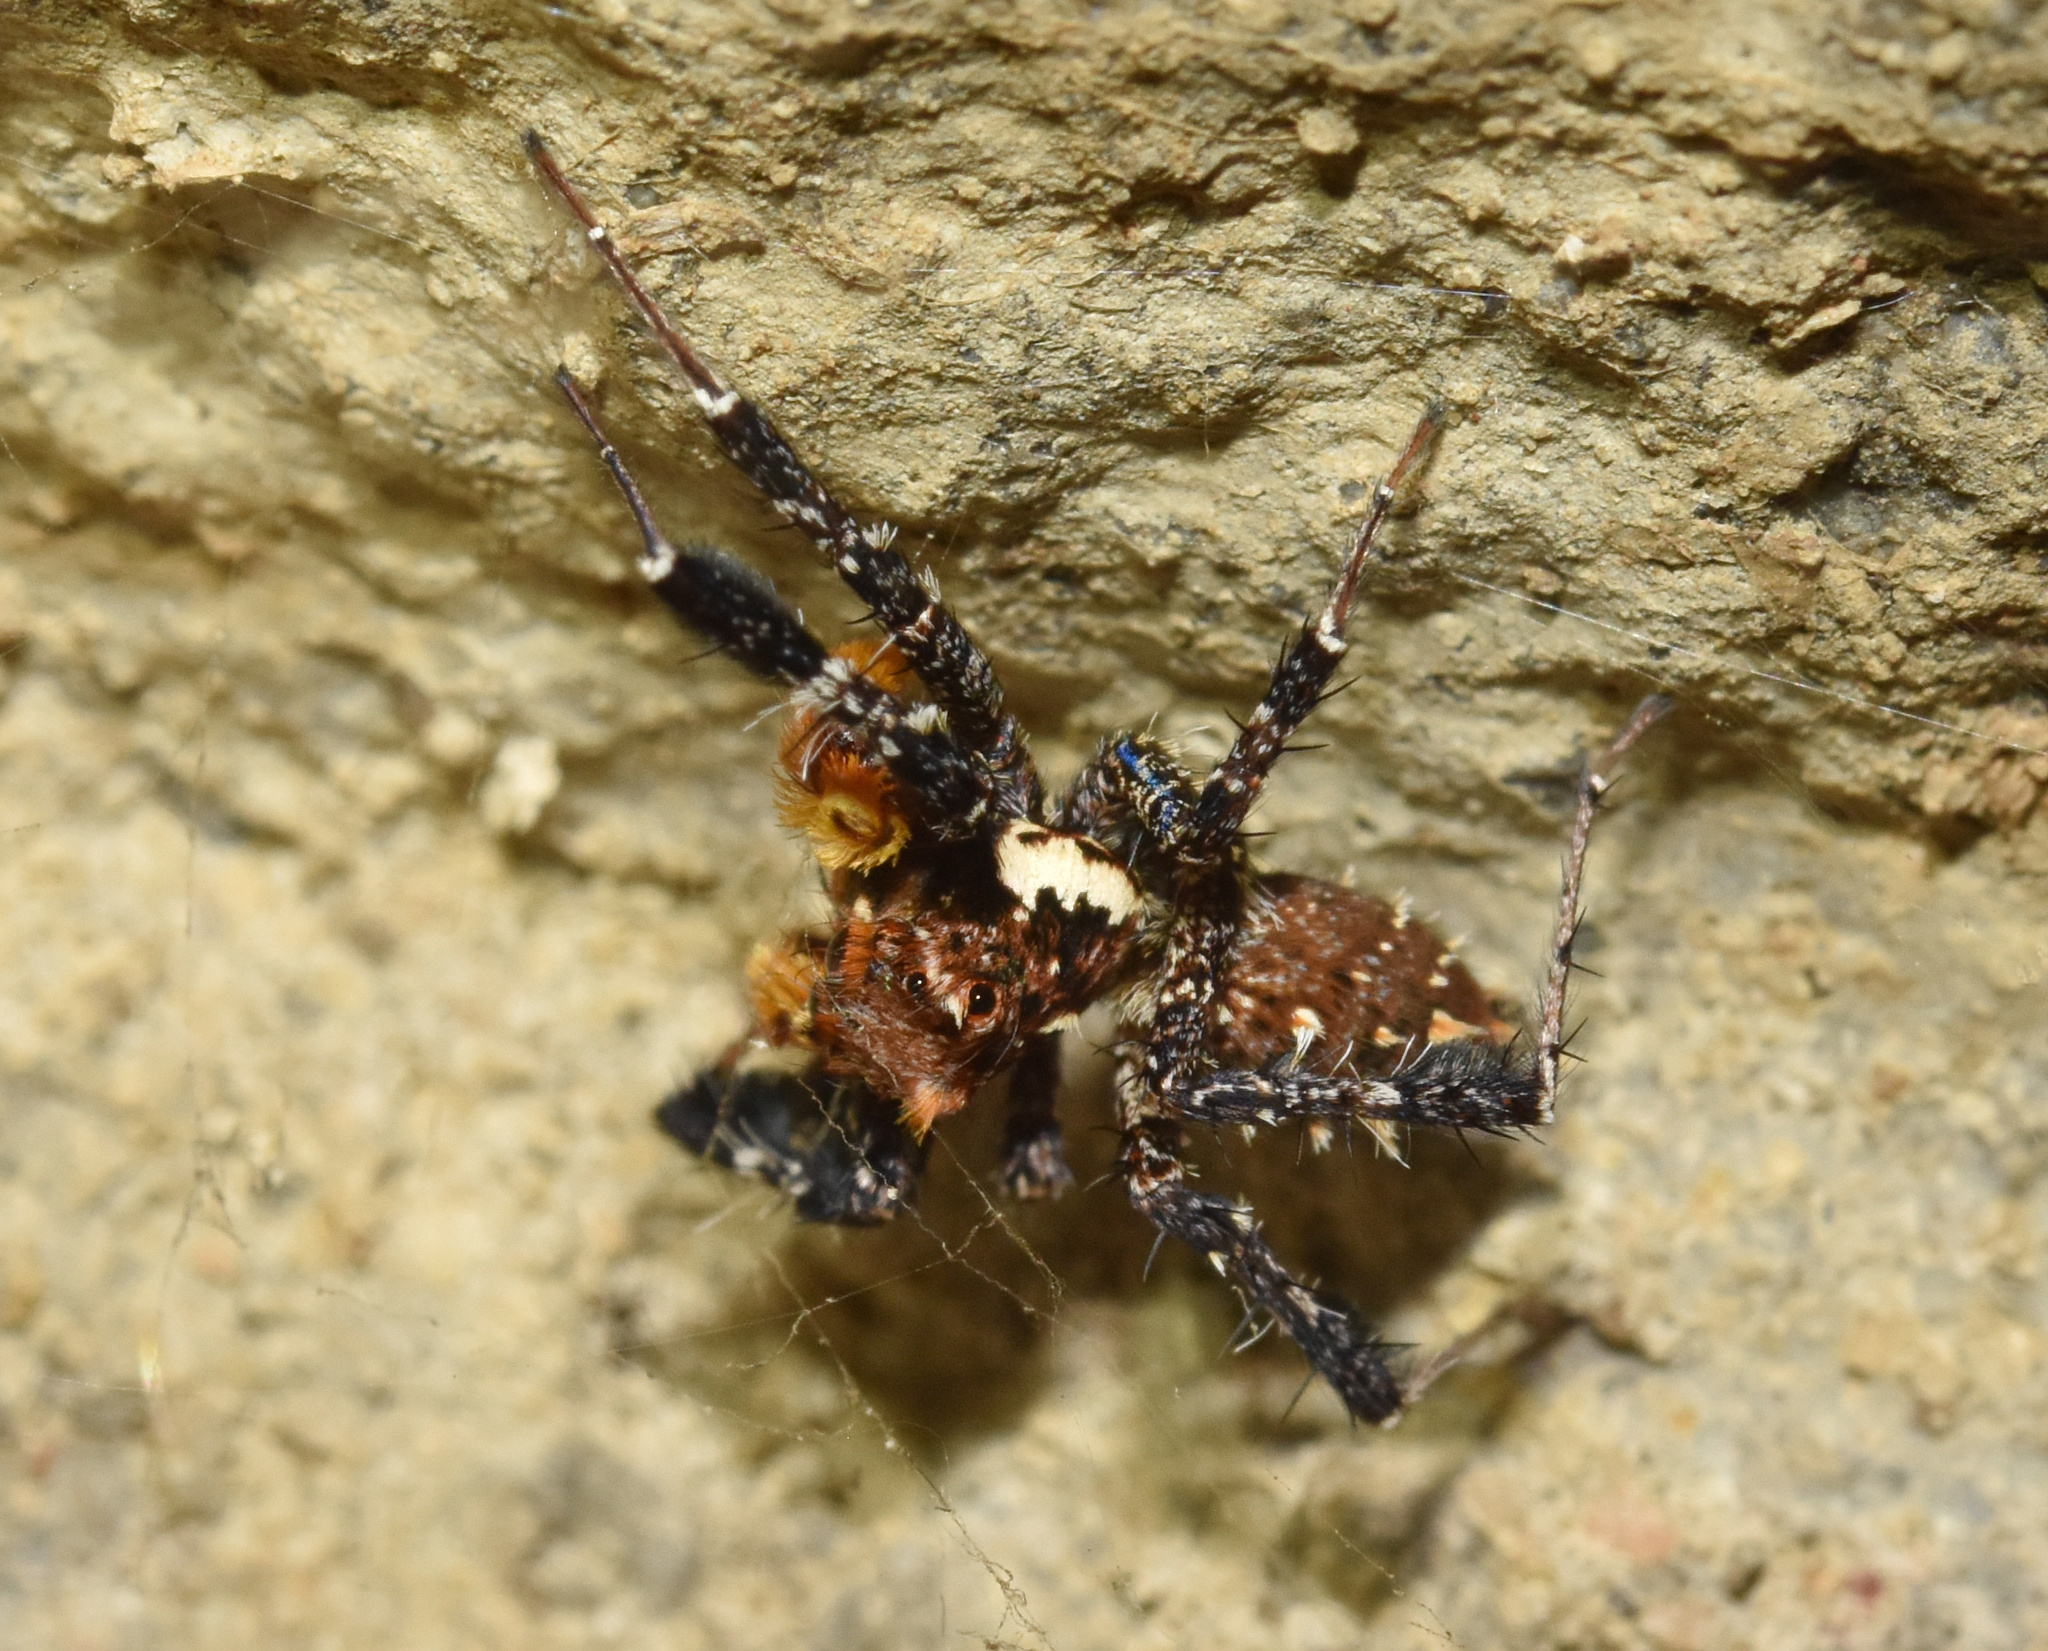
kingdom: Animalia
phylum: Arthropoda
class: Arachnida
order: Araneae
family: Salticidae
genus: Portia
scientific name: Portia schultzi
